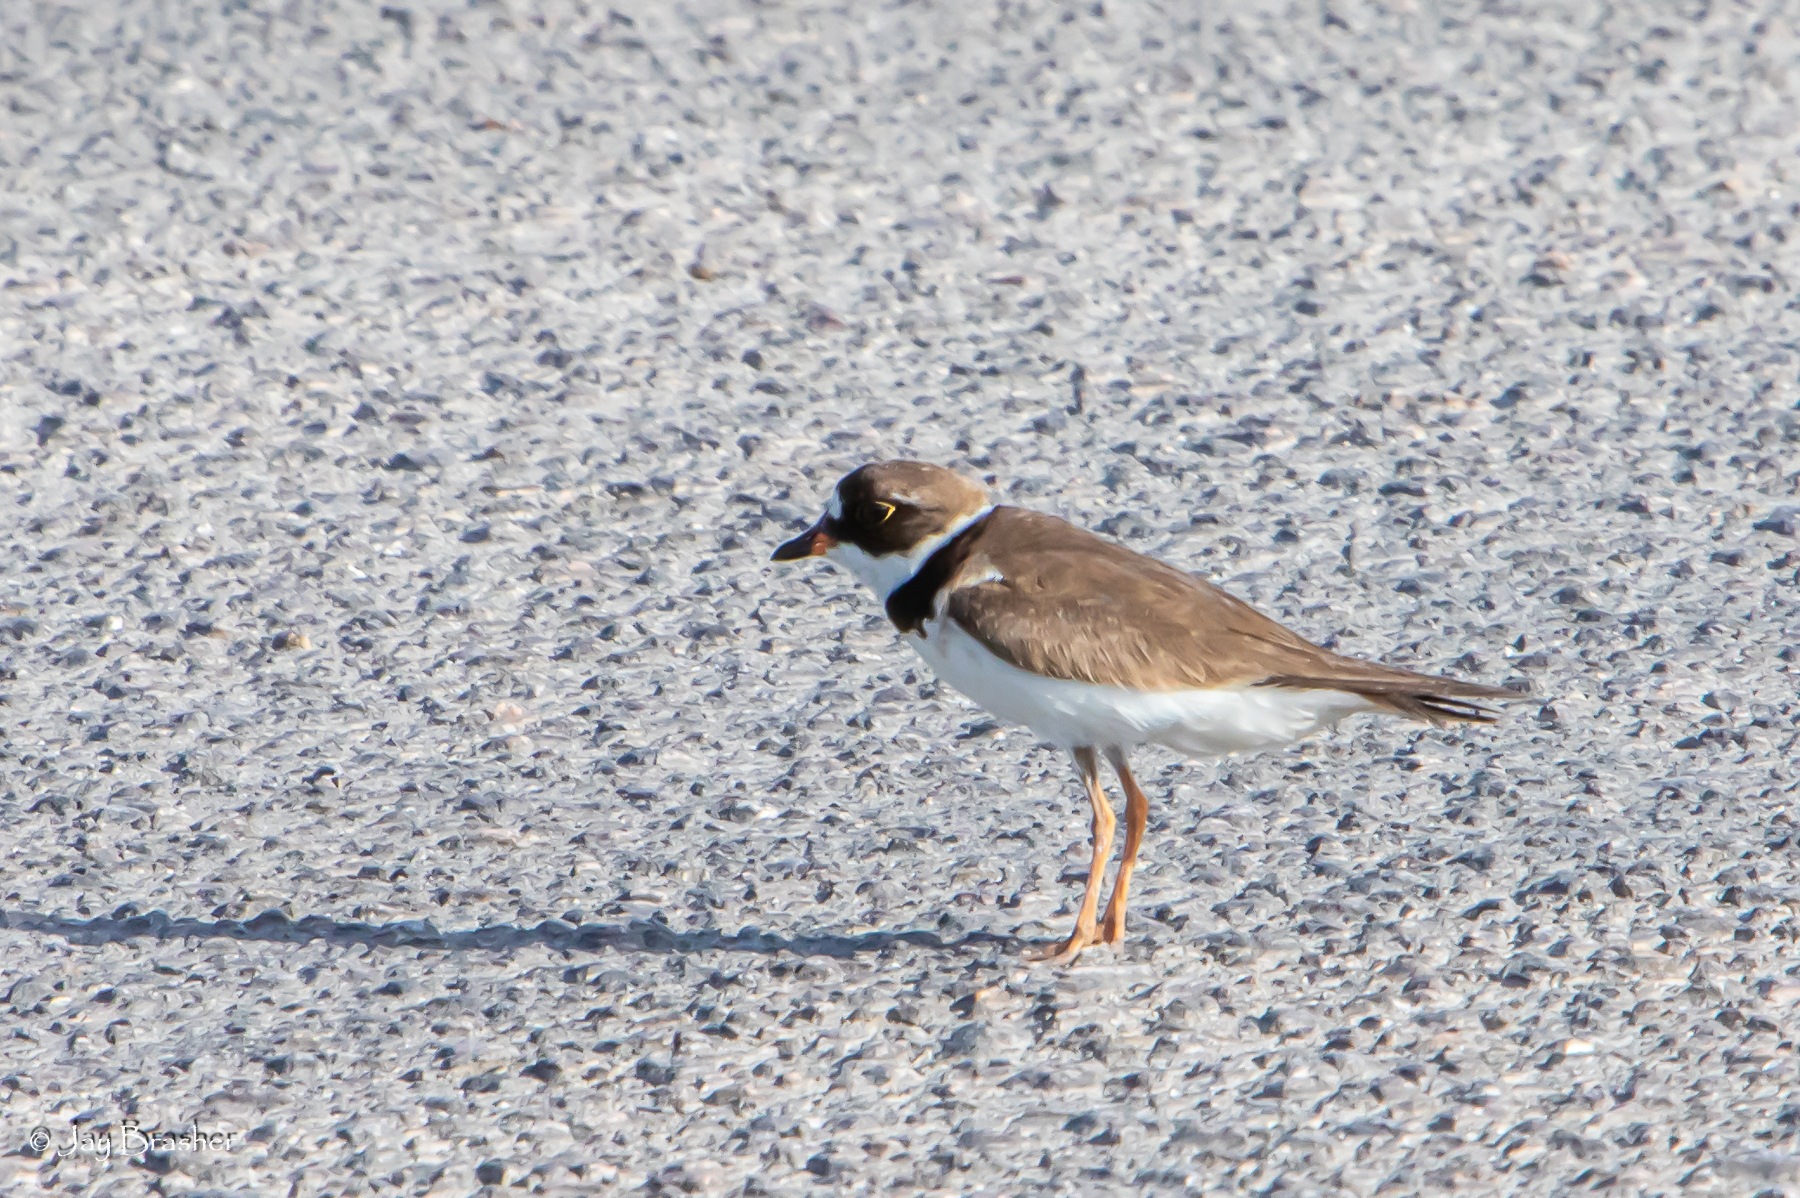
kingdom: Animalia
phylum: Chordata
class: Aves
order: Charadriiformes
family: Charadriidae
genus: Charadrius
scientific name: Charadrius semipalmatus
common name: Semipalmated plover
